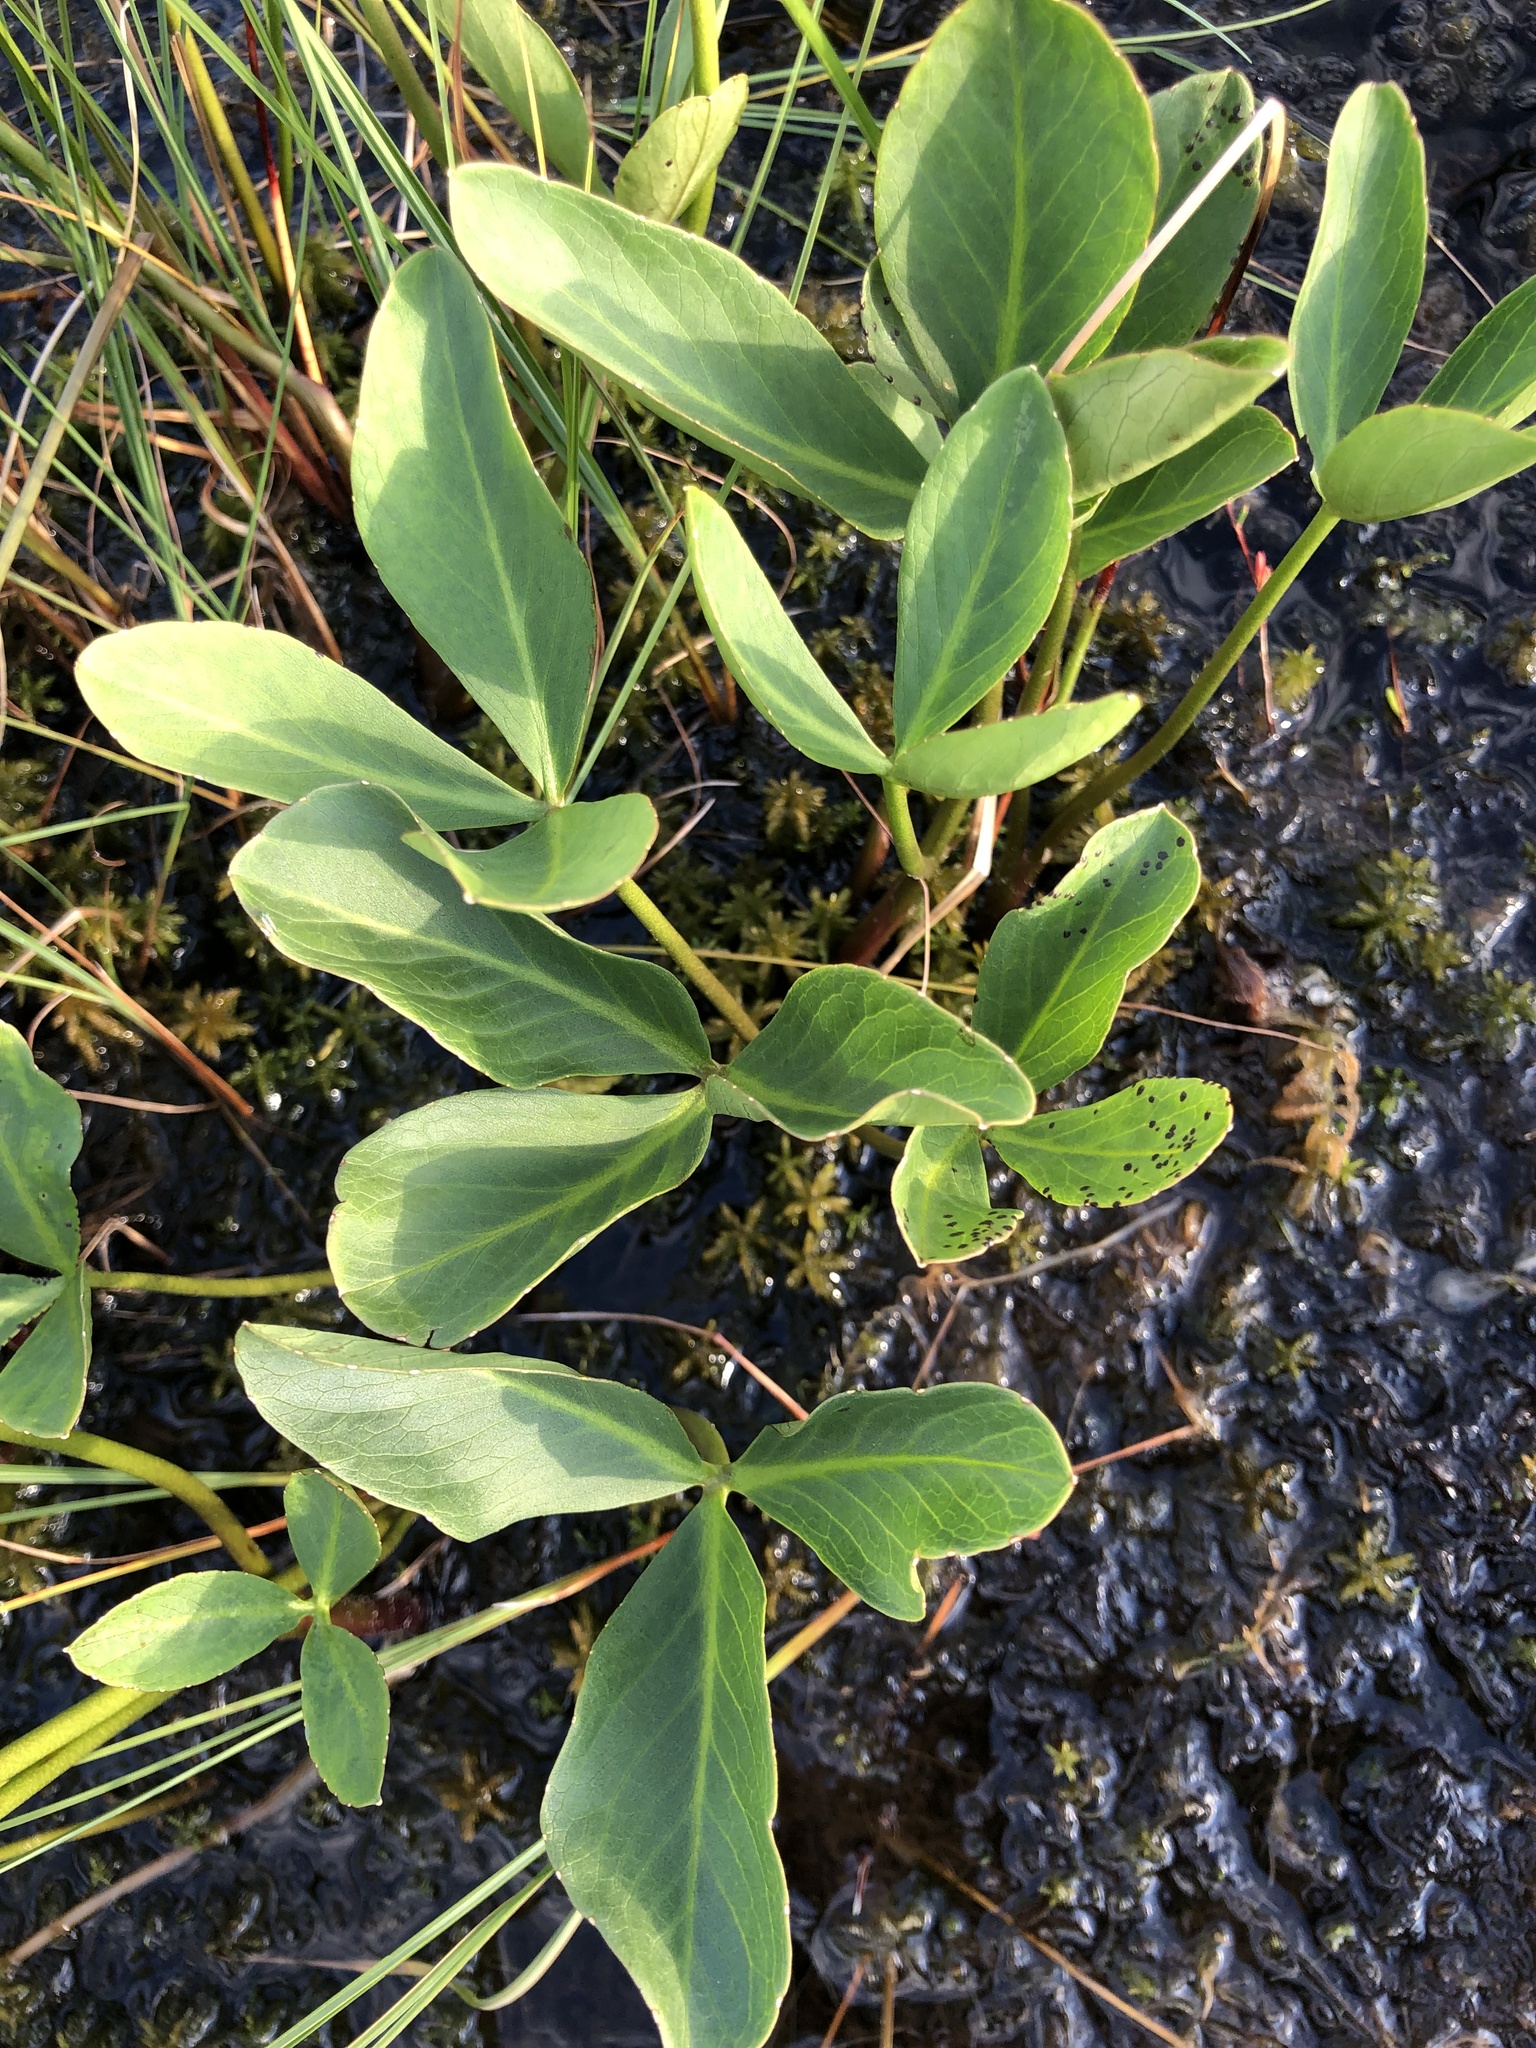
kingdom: Plantae
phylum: Tracheophyta
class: Magnoliopsida
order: Asterales
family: Menyanthaceae
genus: Menyanthes
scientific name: Menyanthes trifoliata
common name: Bogbean
